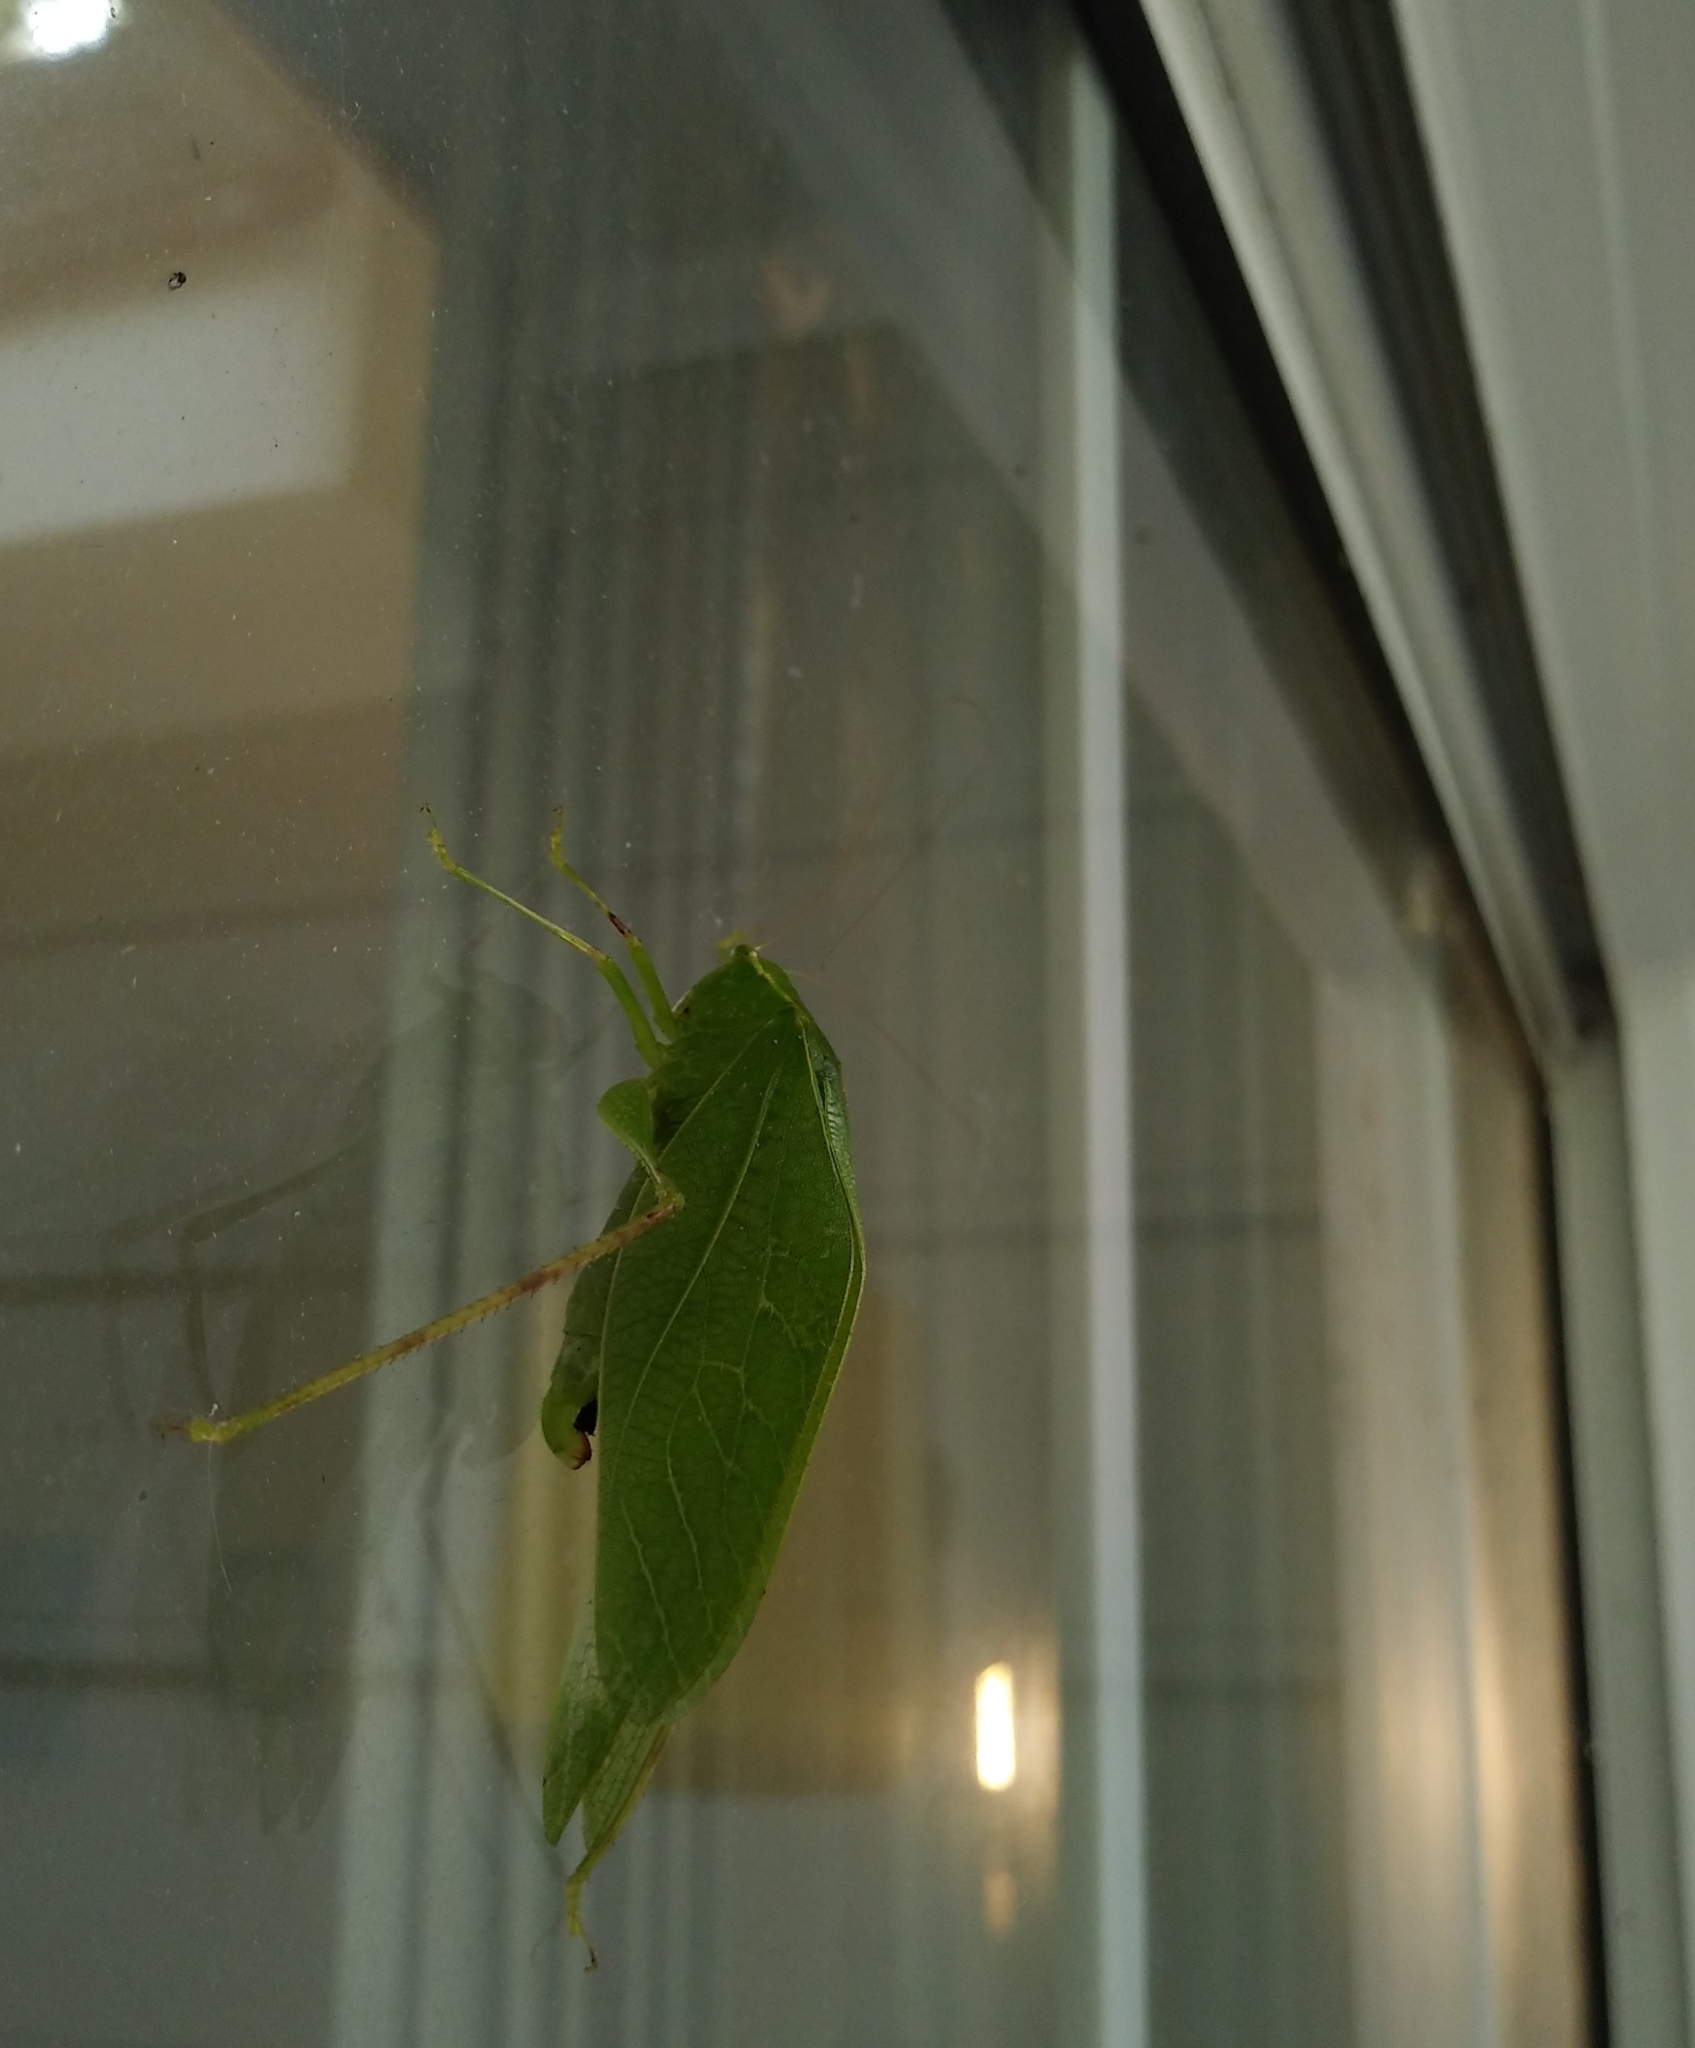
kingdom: Animalia
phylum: Arthropoda
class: Insecta
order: Orthoptera
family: Tettigoniidae
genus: Microcentrum
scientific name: Microcentrum rhombifolium
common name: Broad-winged katydid
